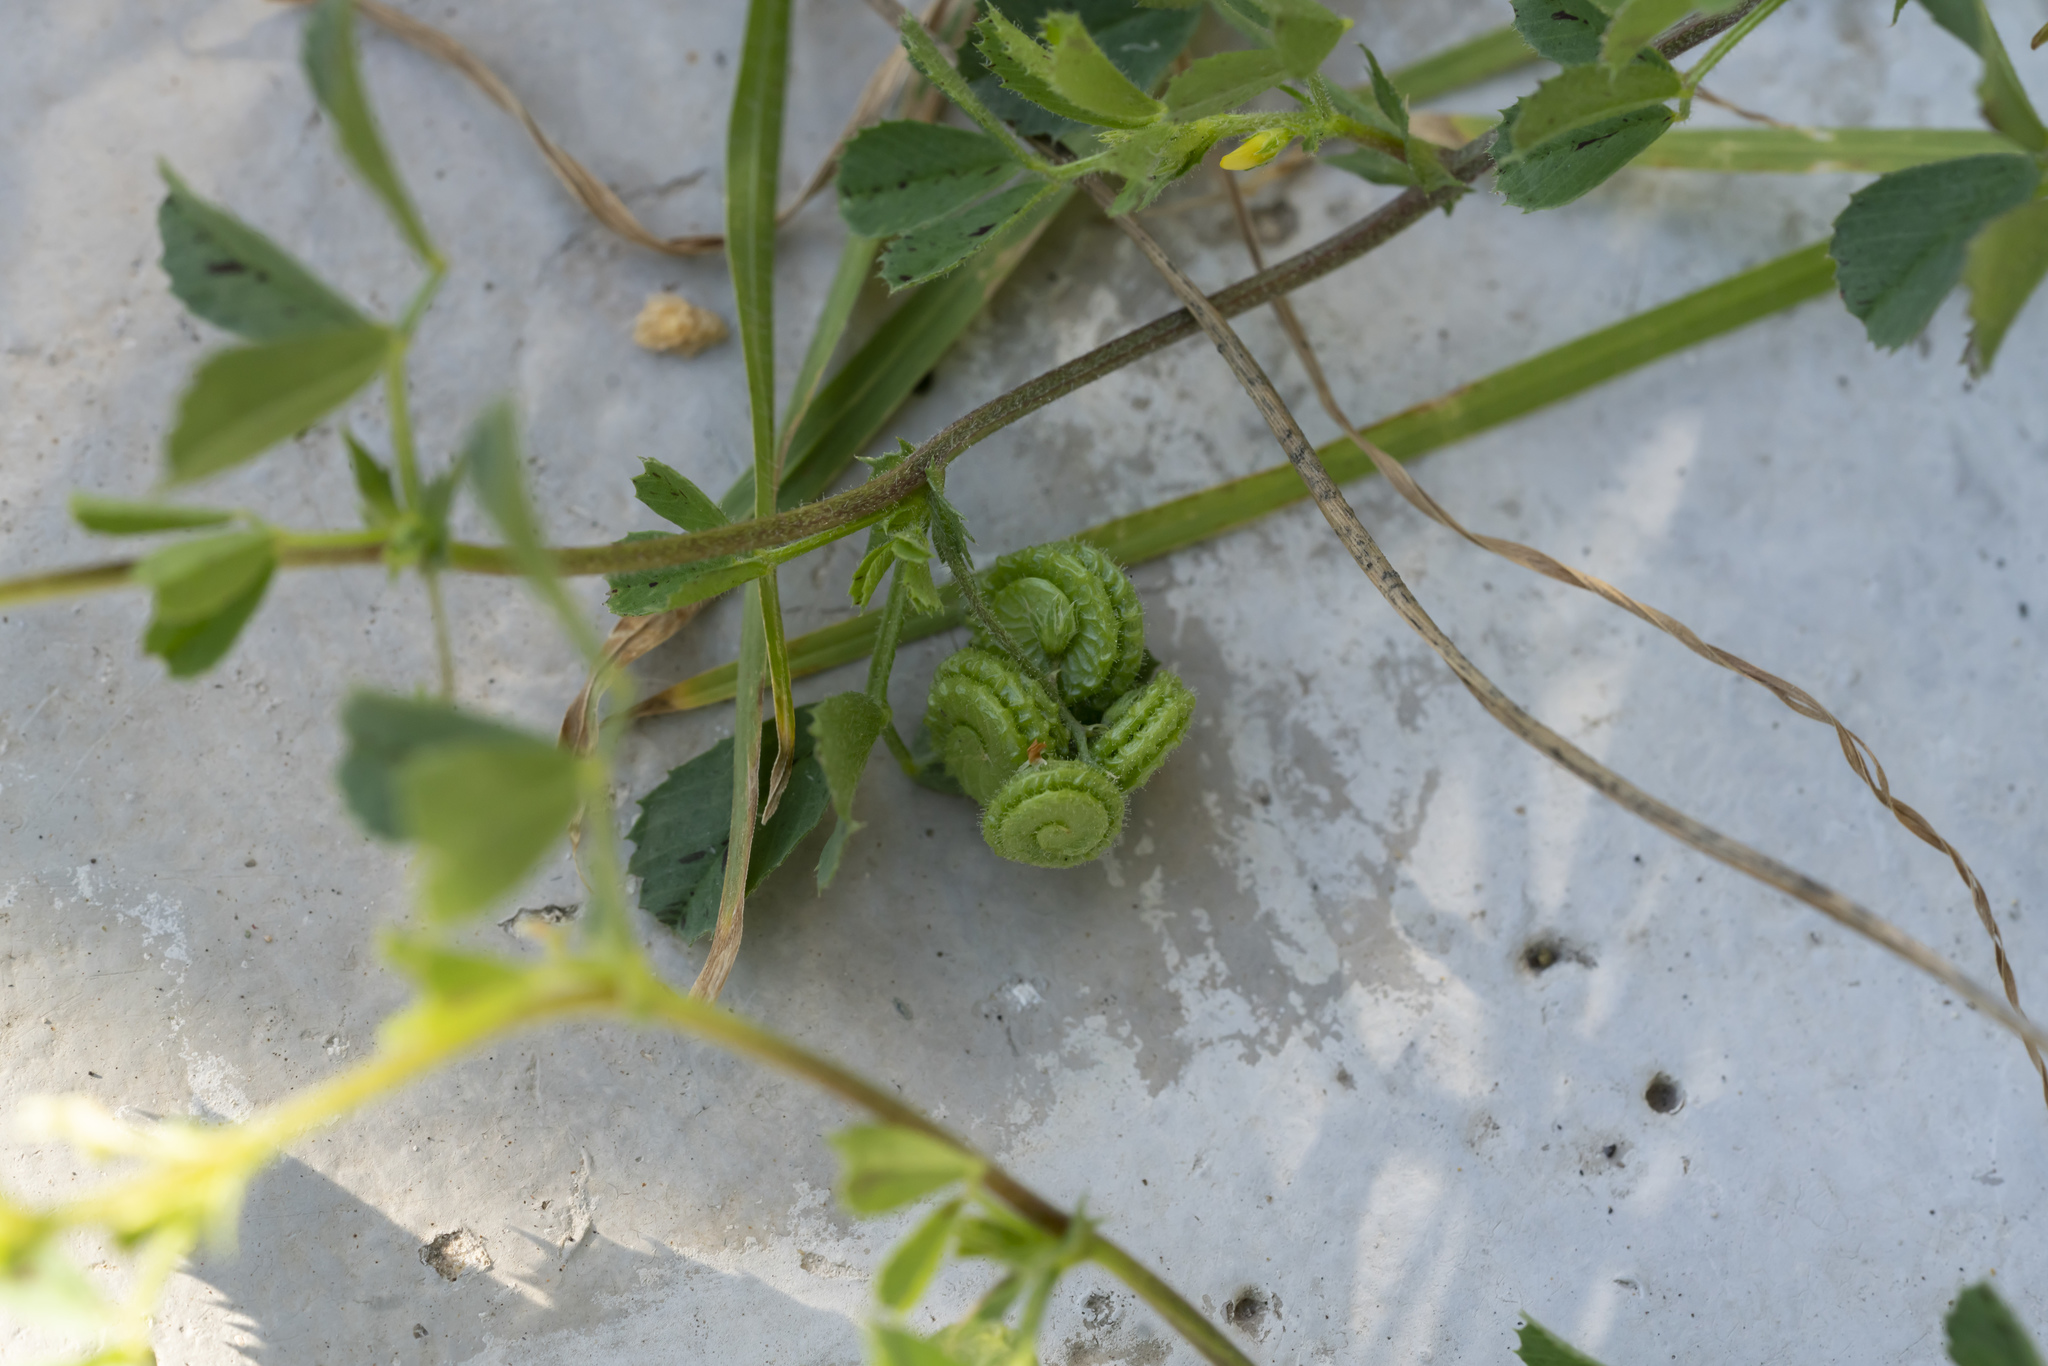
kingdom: Plantae
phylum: Tracheophyta
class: Magnoliopsida
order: Fabales
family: Fabaceae
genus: Medicago
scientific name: Medicago rugosa
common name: Gama medic
